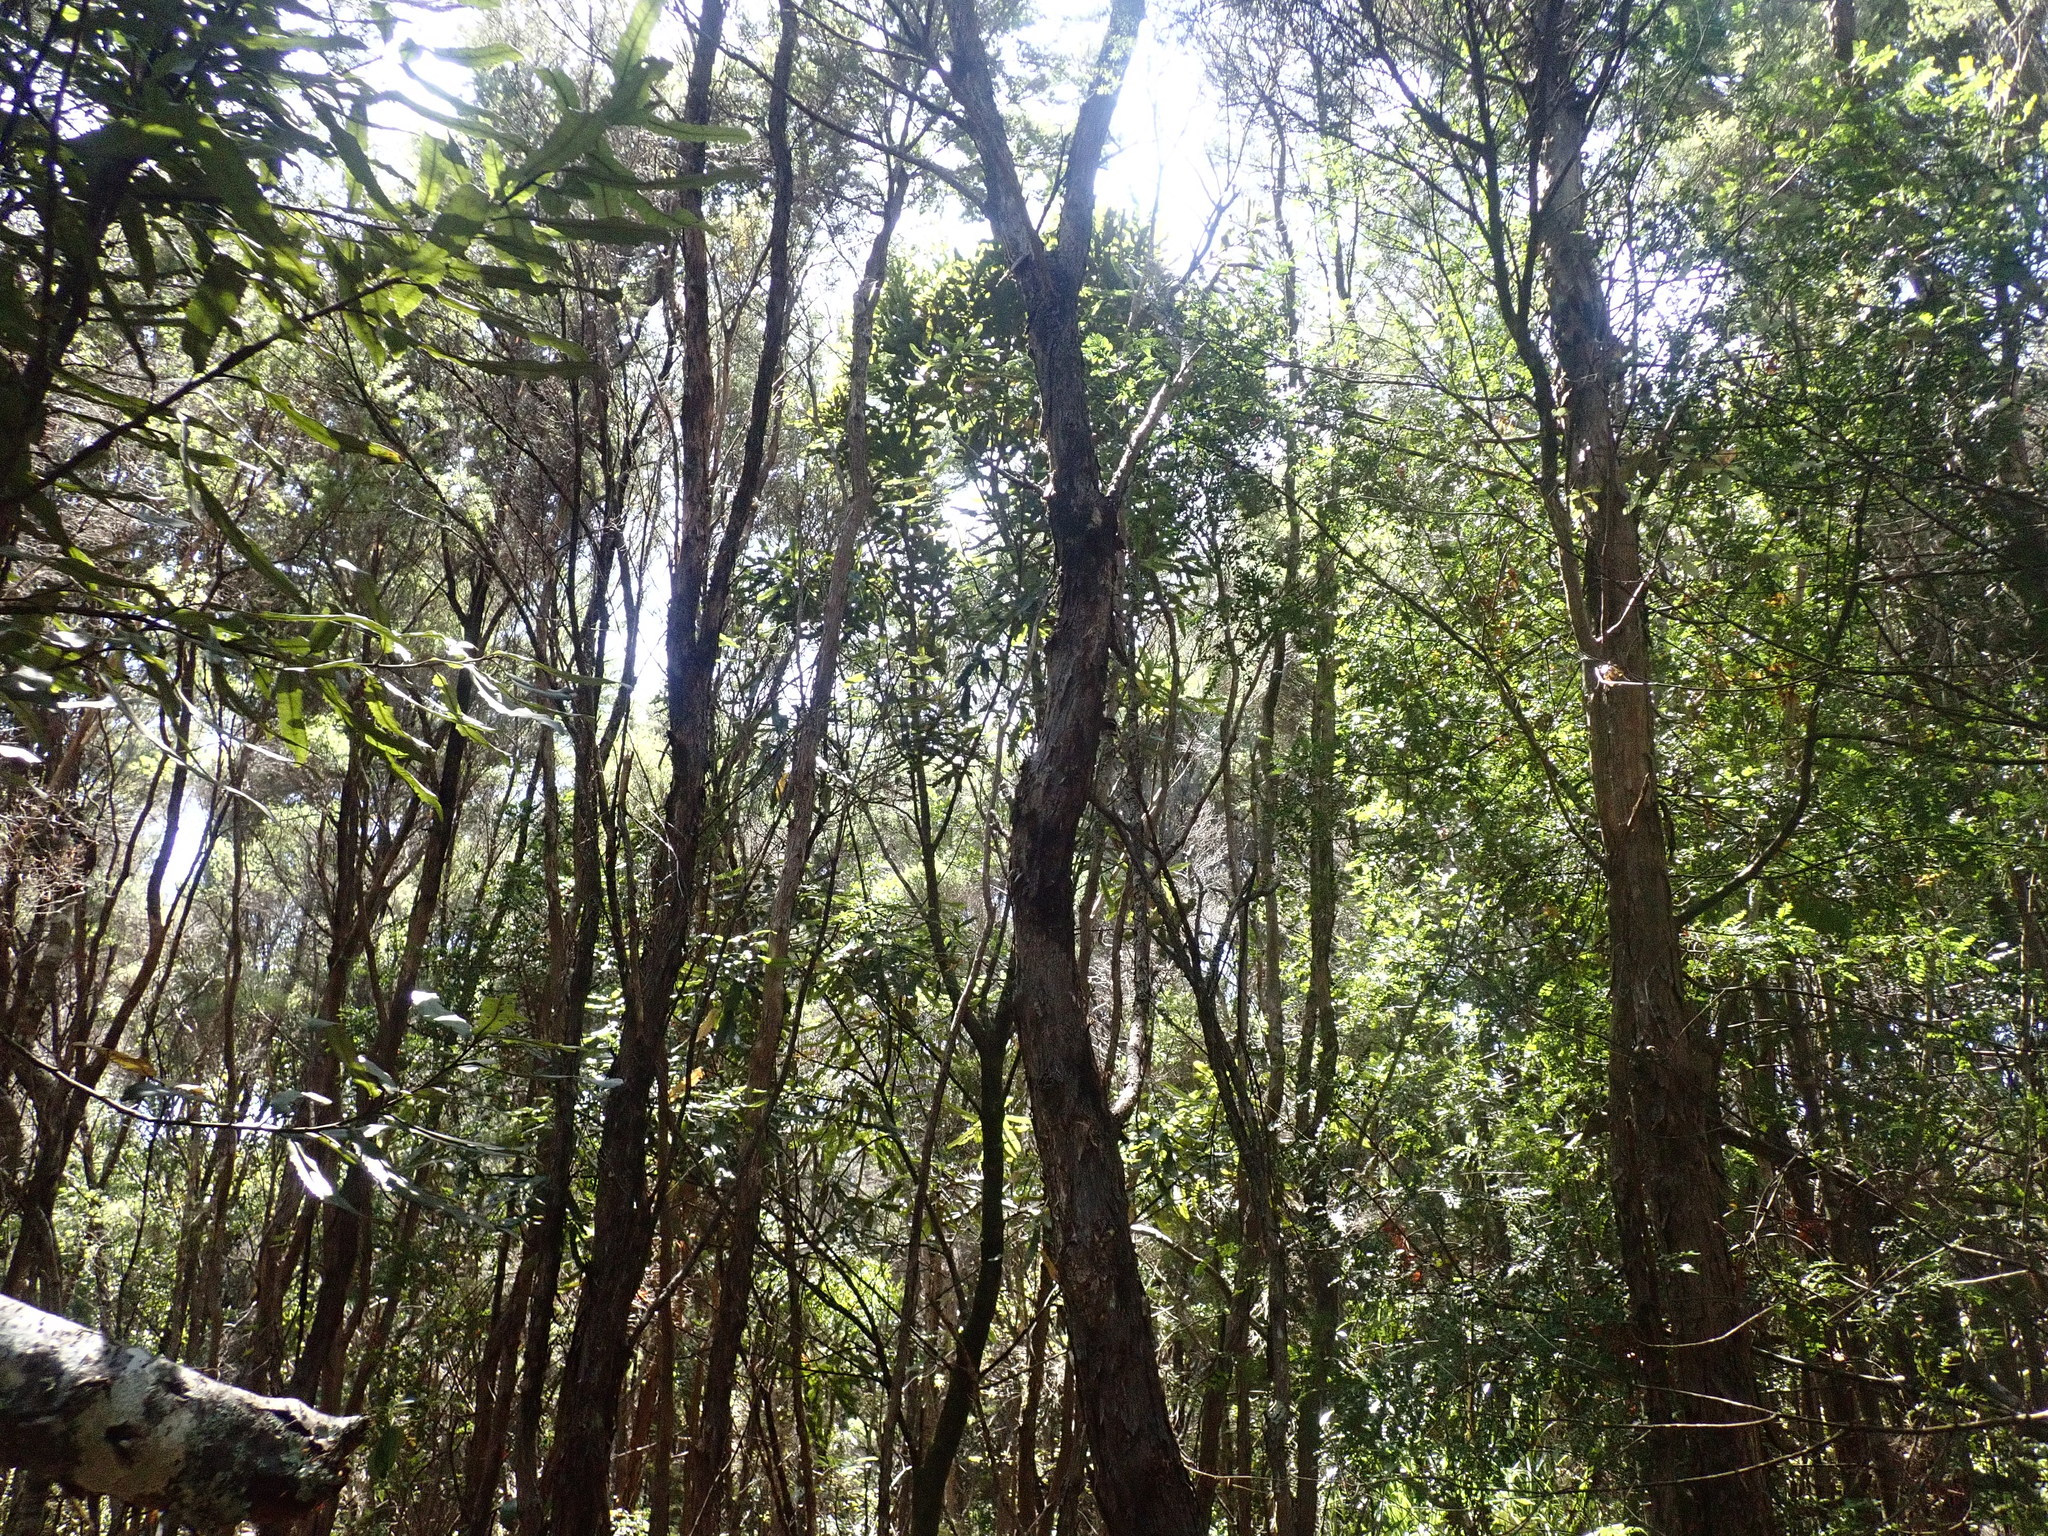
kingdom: Plantae
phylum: Tracheophyta
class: Magnoliopsida
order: Apiales
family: Araliaceae
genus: Pseudopanax
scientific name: Pseudopanax crassifolius
